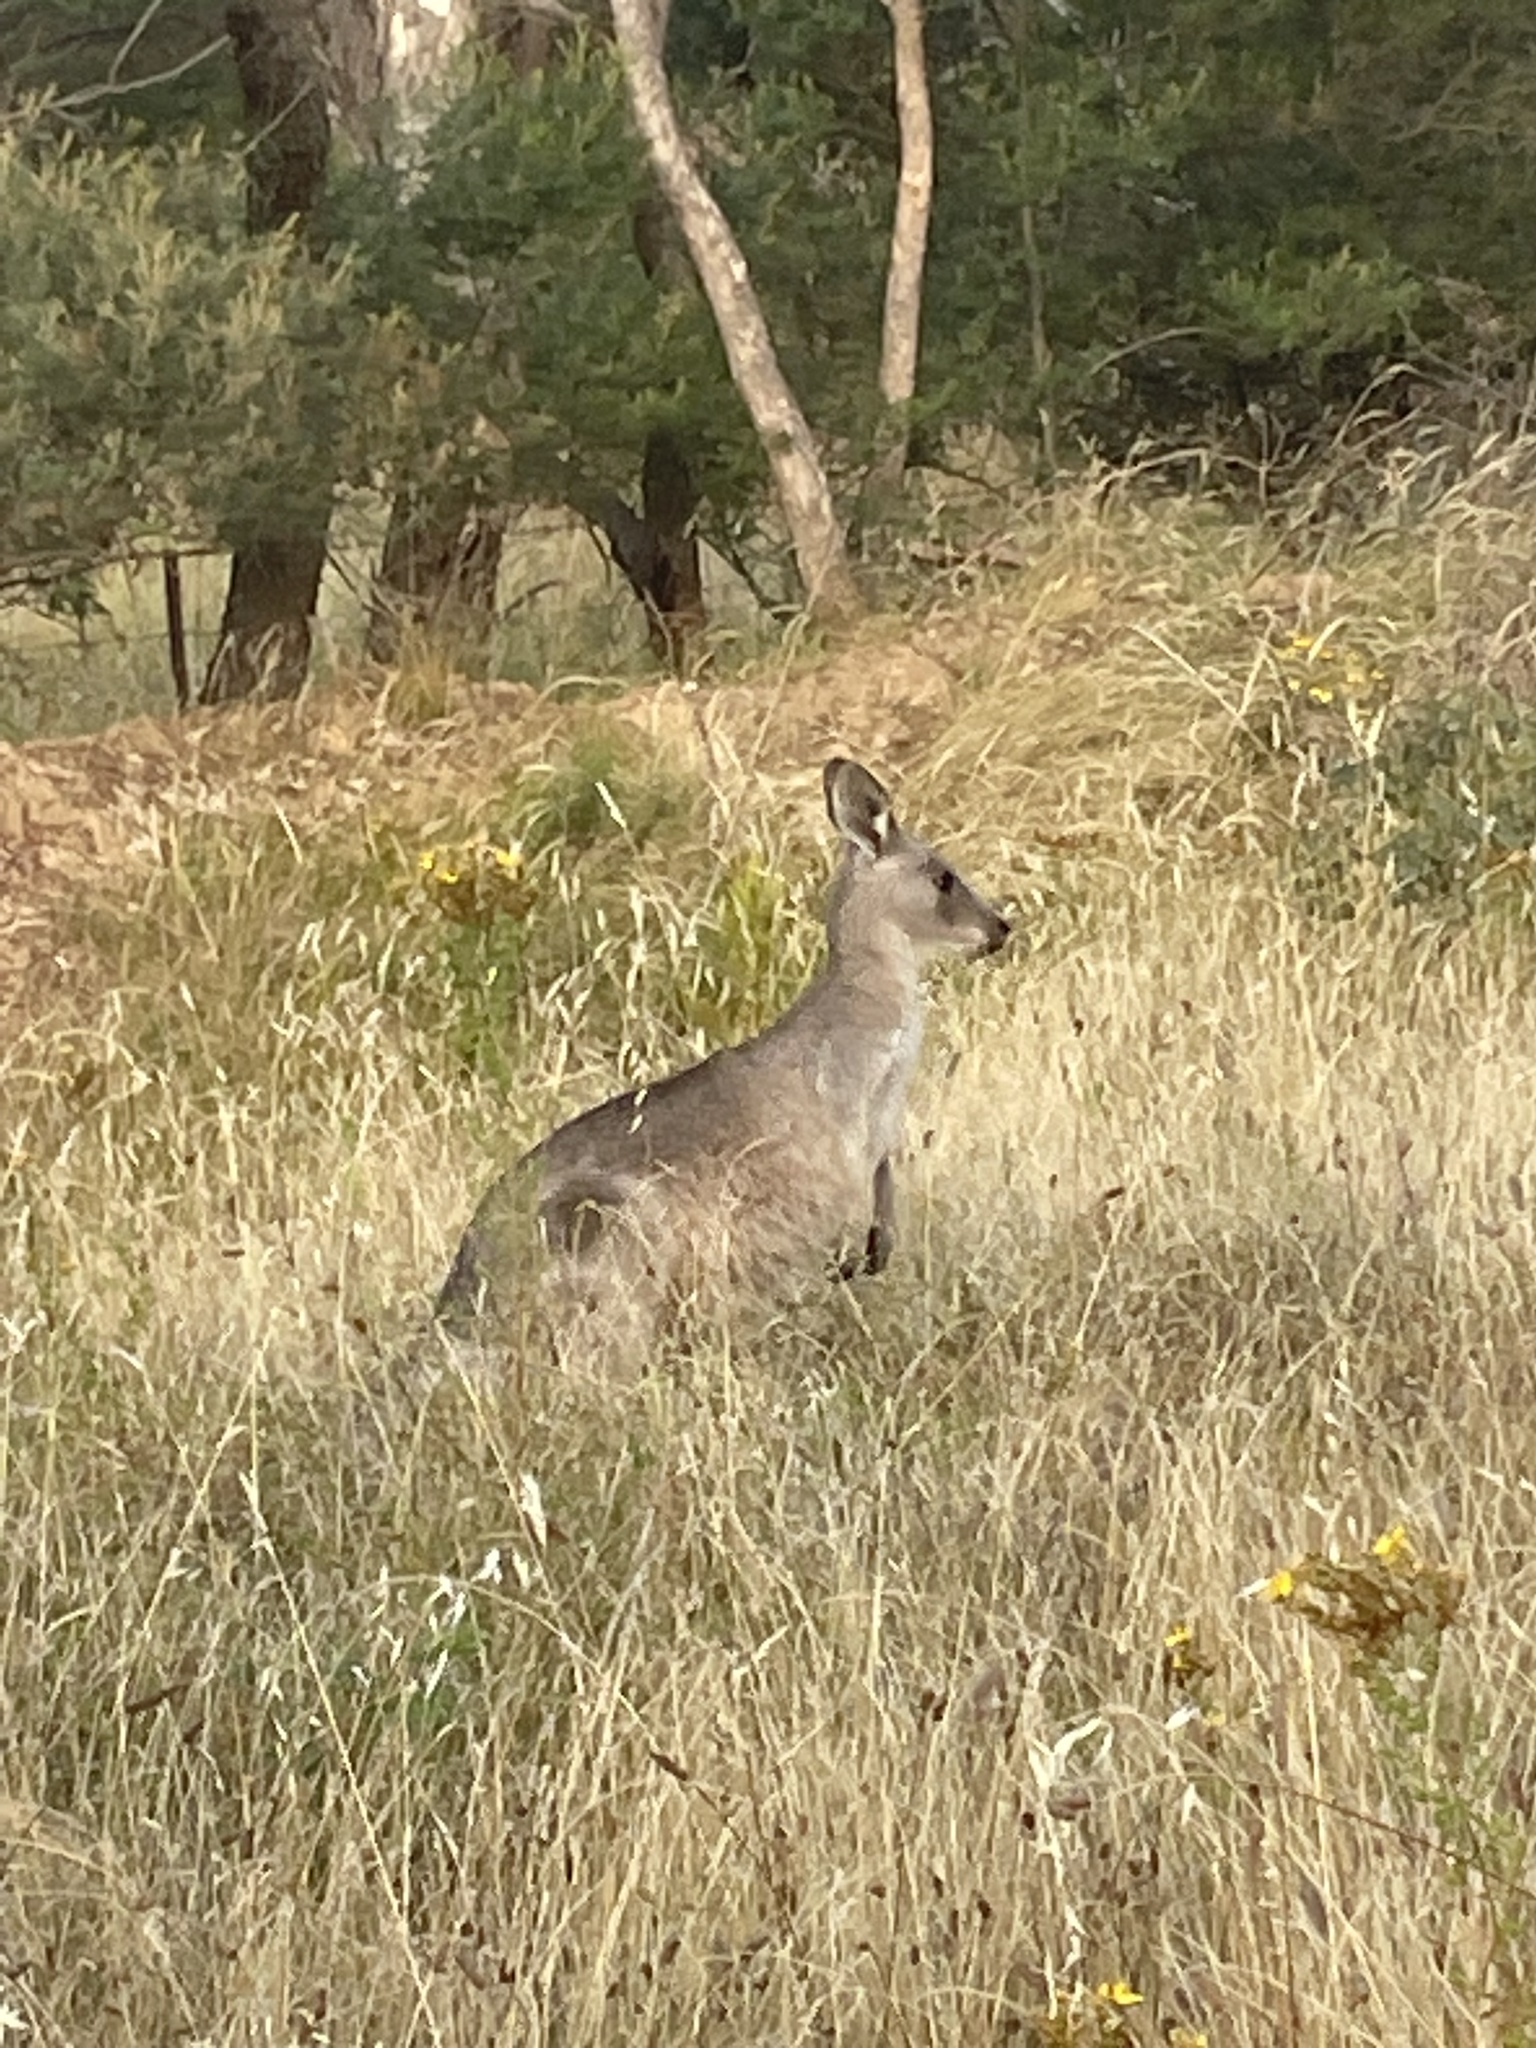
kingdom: Animalia
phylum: Chordata
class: Mammalia
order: Diprotodontia
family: Macropodidae
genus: Macropus
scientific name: Macropus giganteus
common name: Eastern grey kangaroo
